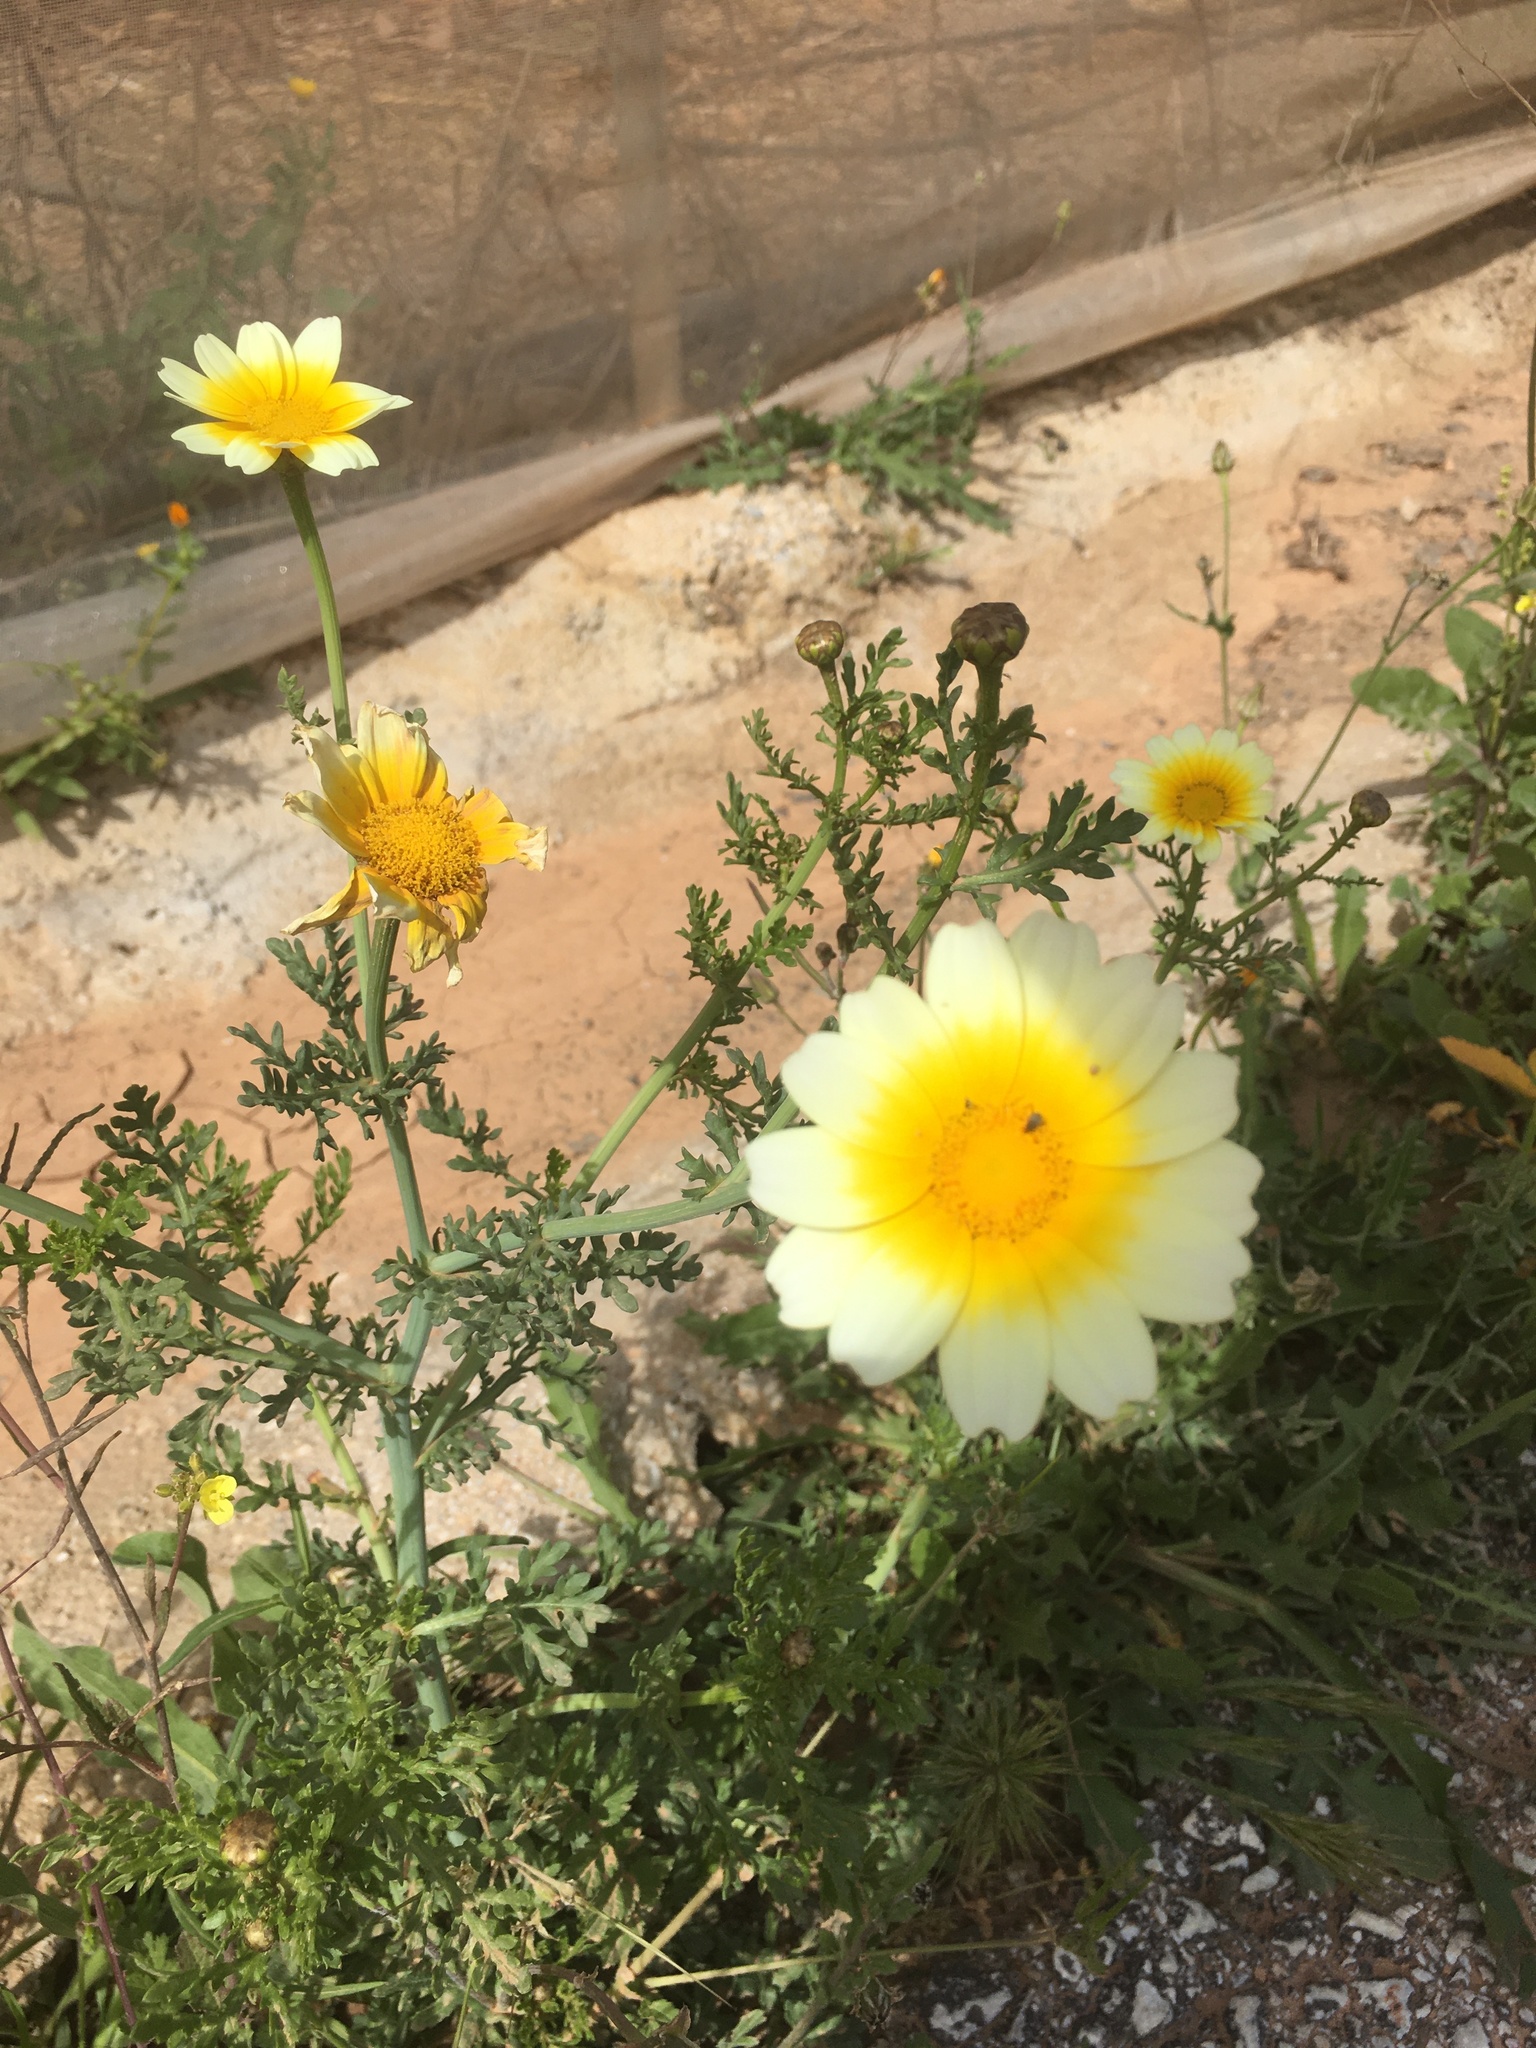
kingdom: Plantae
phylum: Tracheophyta
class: Magnoliopsida
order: Asterales
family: Asteraceae
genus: Glebionis
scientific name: Glebionis coronaria
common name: Crowndaisy
